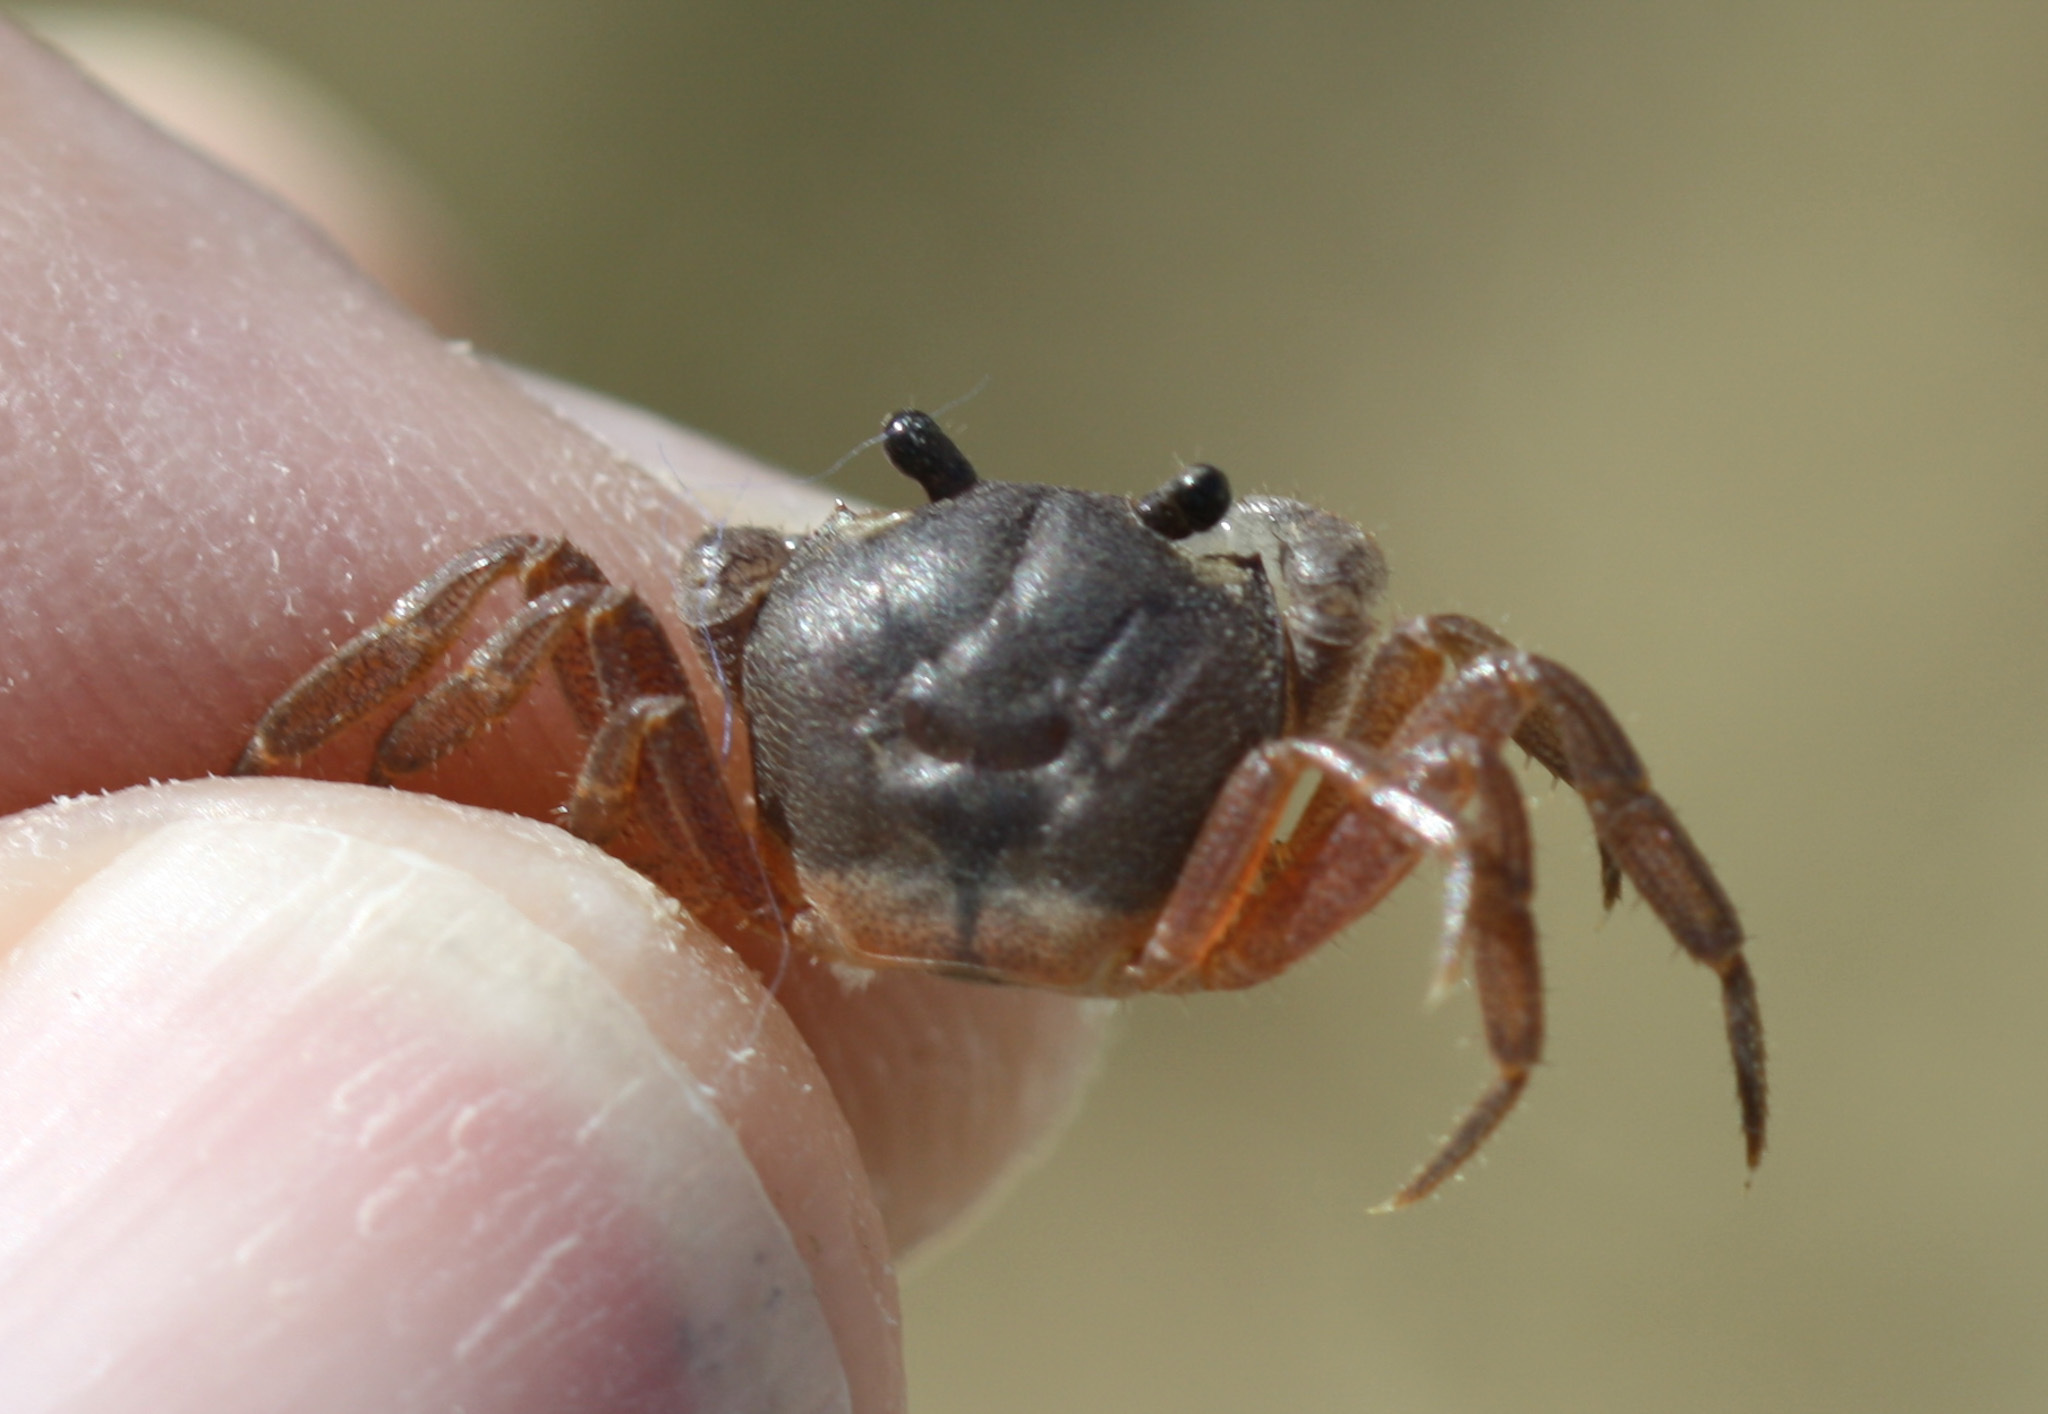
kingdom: Animalia
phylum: Arthropoda
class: Malacostraca
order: Decapoda
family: Gecarcinidae
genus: Gecarcinus
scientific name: Gecarcinus quadratus
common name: Halloween crab
